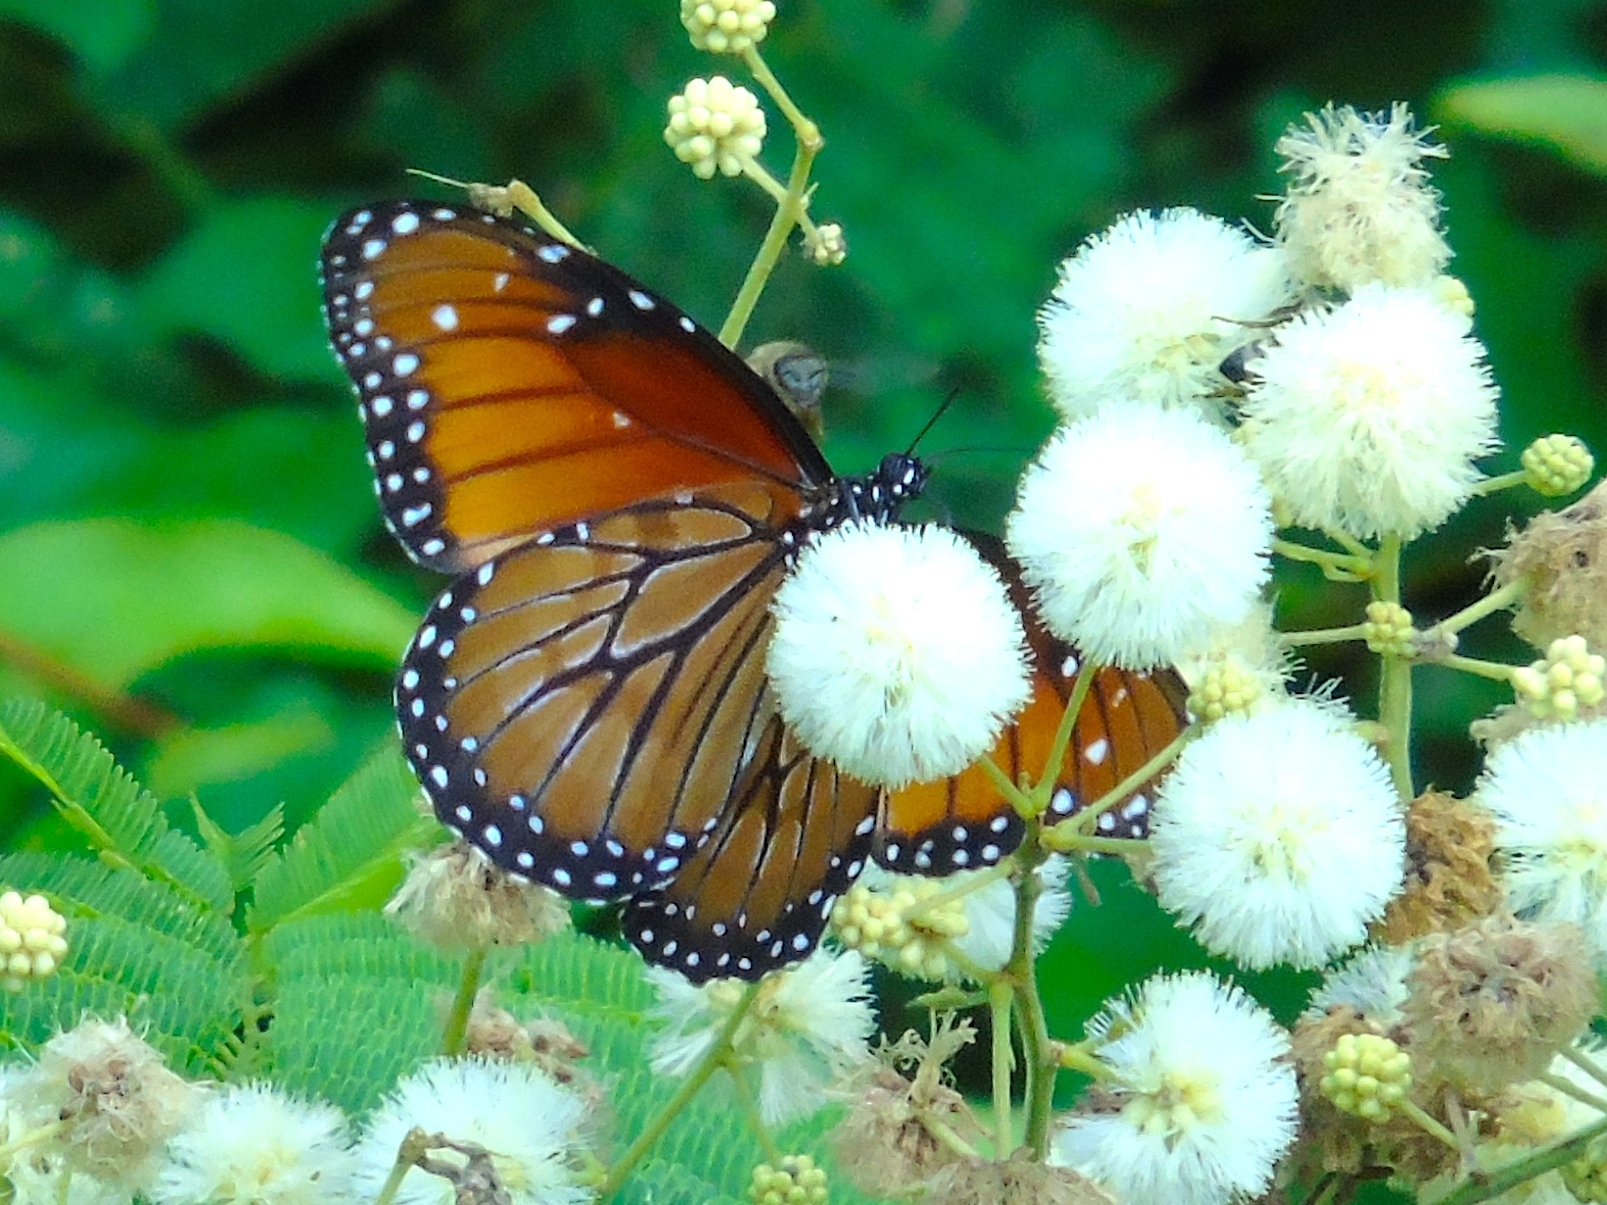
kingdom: Animalia
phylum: Arthropoda
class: Insecta
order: Lepidoptera
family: Nymphalidae
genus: Danaus
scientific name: Danaus eresimus
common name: Soldier
